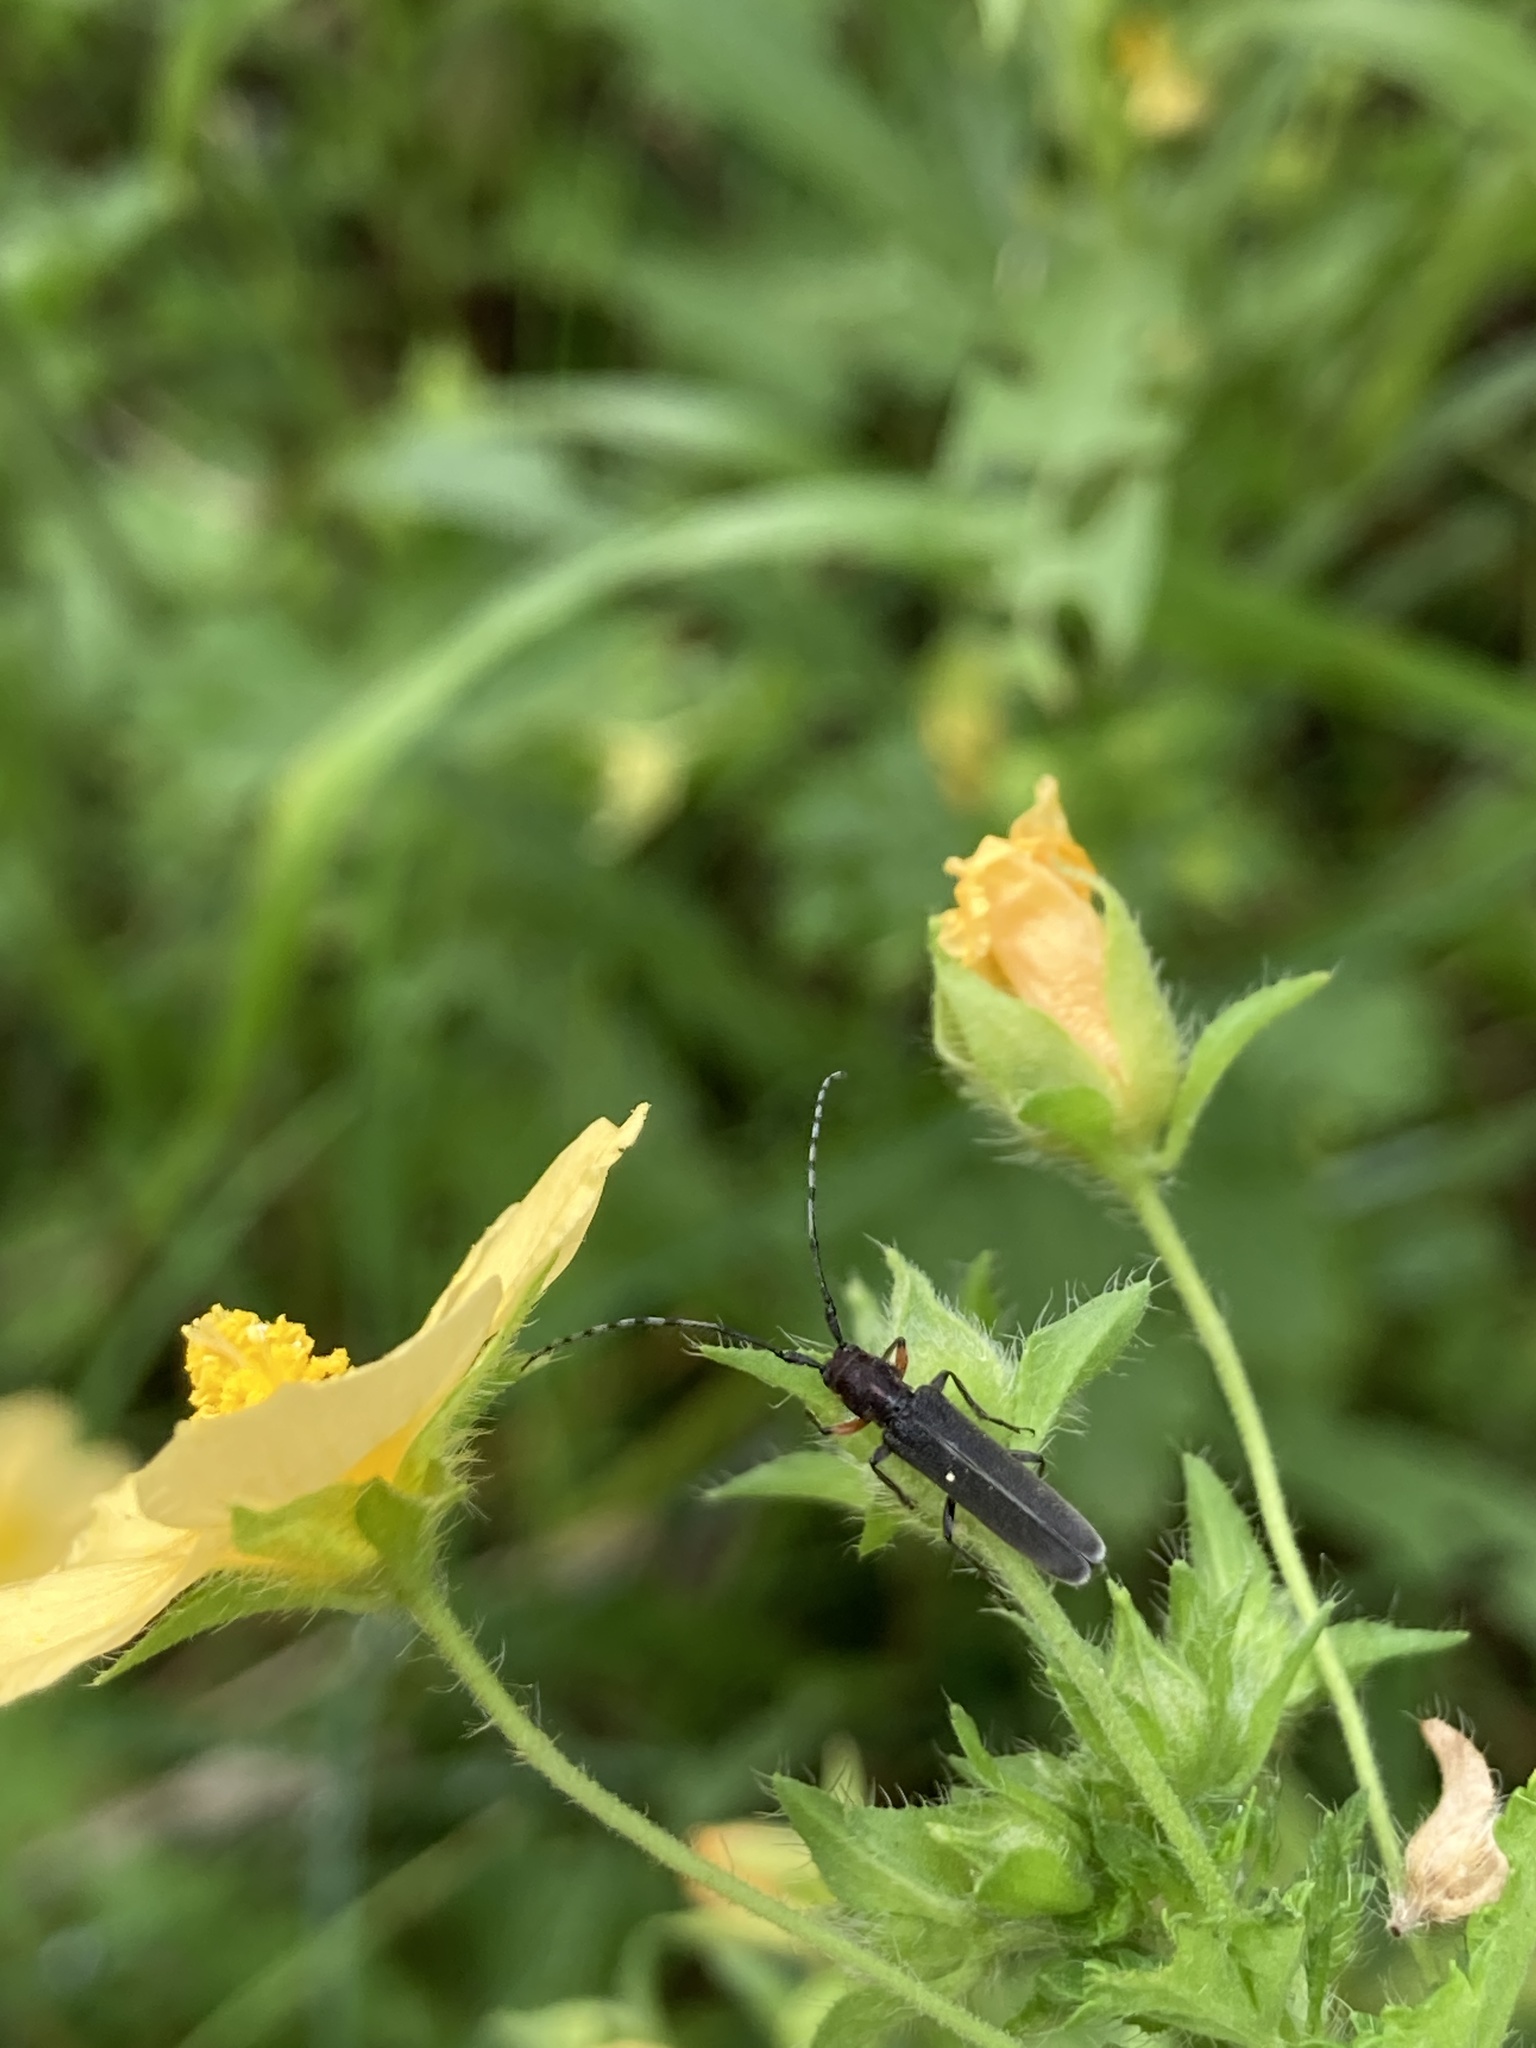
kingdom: Animalia
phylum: Arthropoda
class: Insecta
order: Coleoptera
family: Cerambycidae
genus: Emphytoeciosoma
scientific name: Emphytoeciosoma daguerrei
